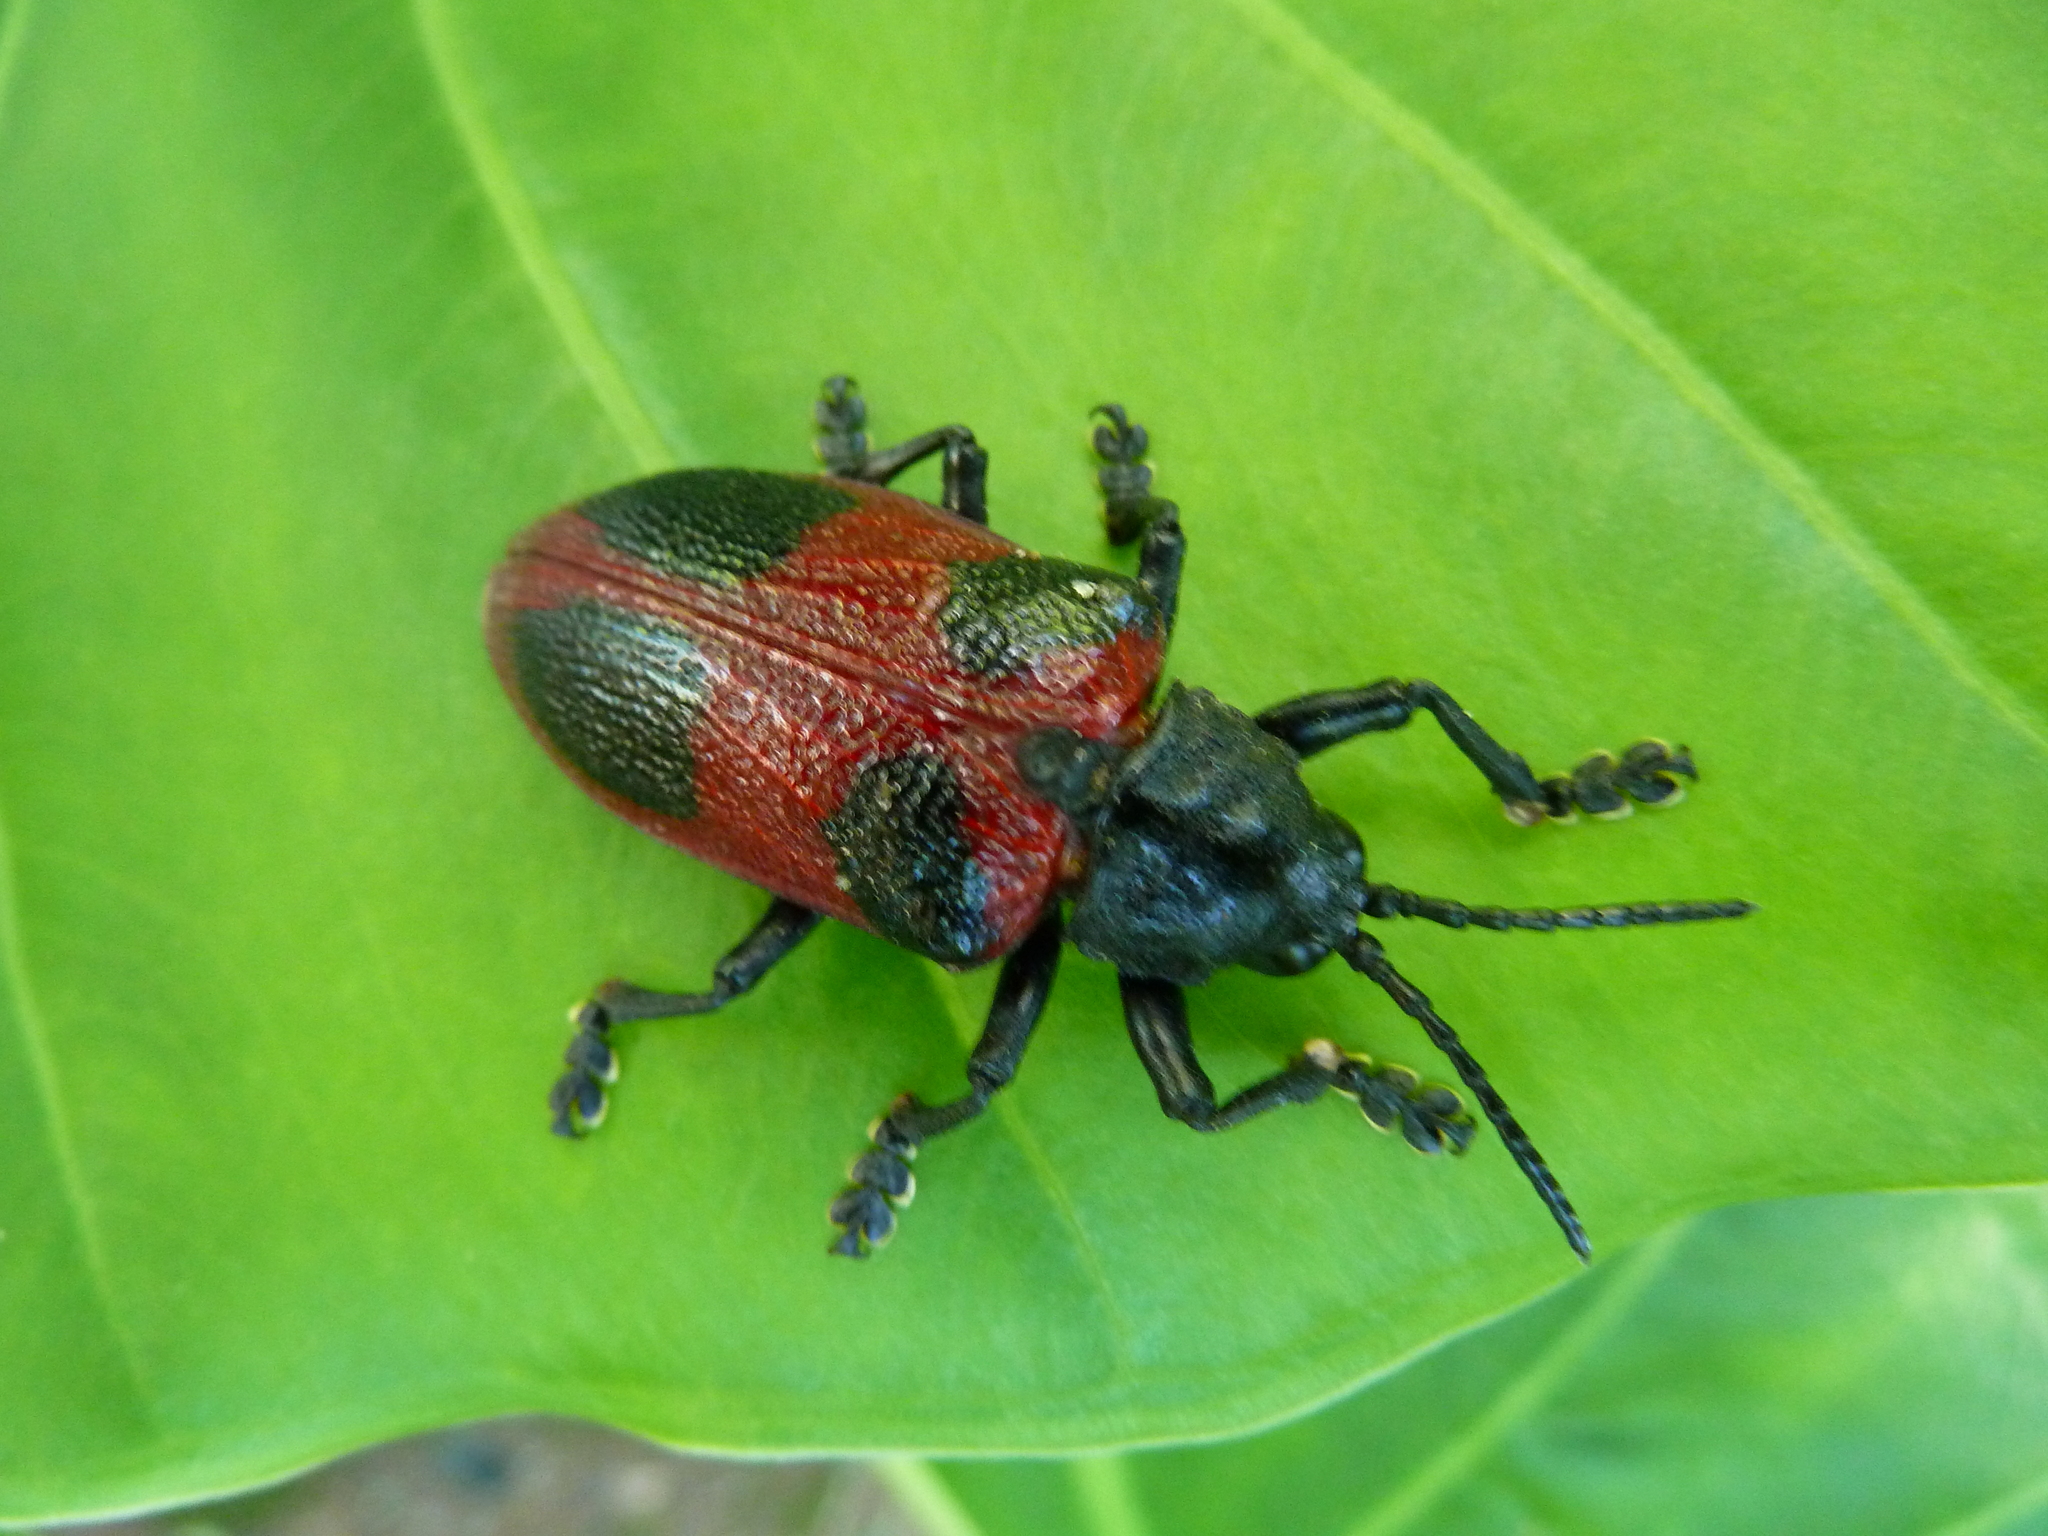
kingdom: Animalia
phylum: Arthropoda
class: Insecta
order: Coleoptera
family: Chrysomelidae
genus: Coraliomela
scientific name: Coraliomela quadrimaculata
